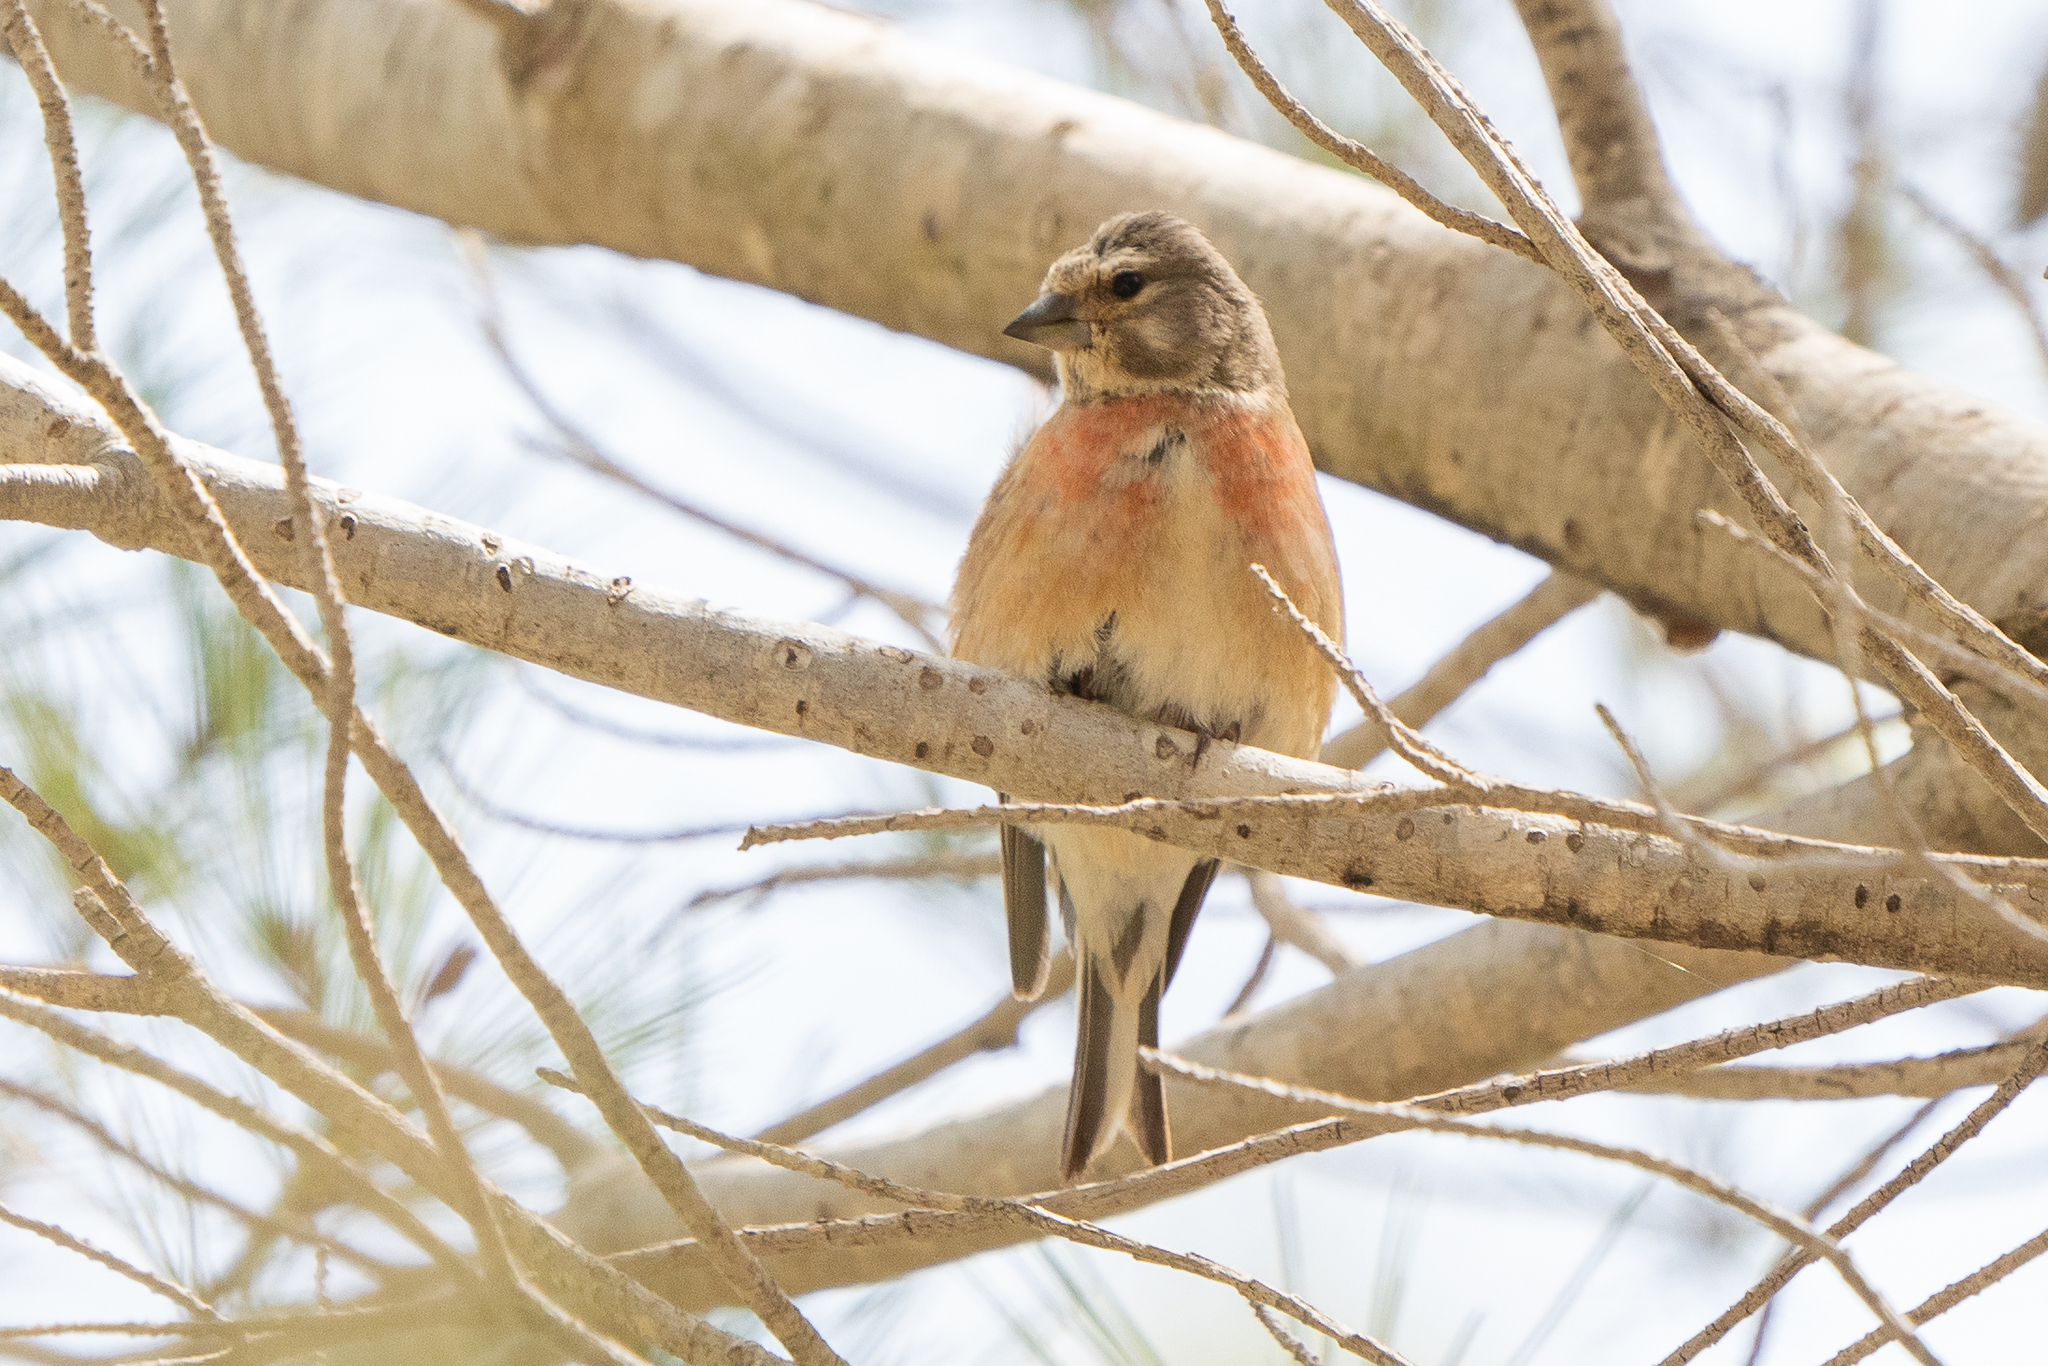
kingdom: Animalia
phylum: Chordata
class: Aves
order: Passeriformes
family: Fringillidae
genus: Linaria
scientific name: Linaria cannabina
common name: Common linnet
